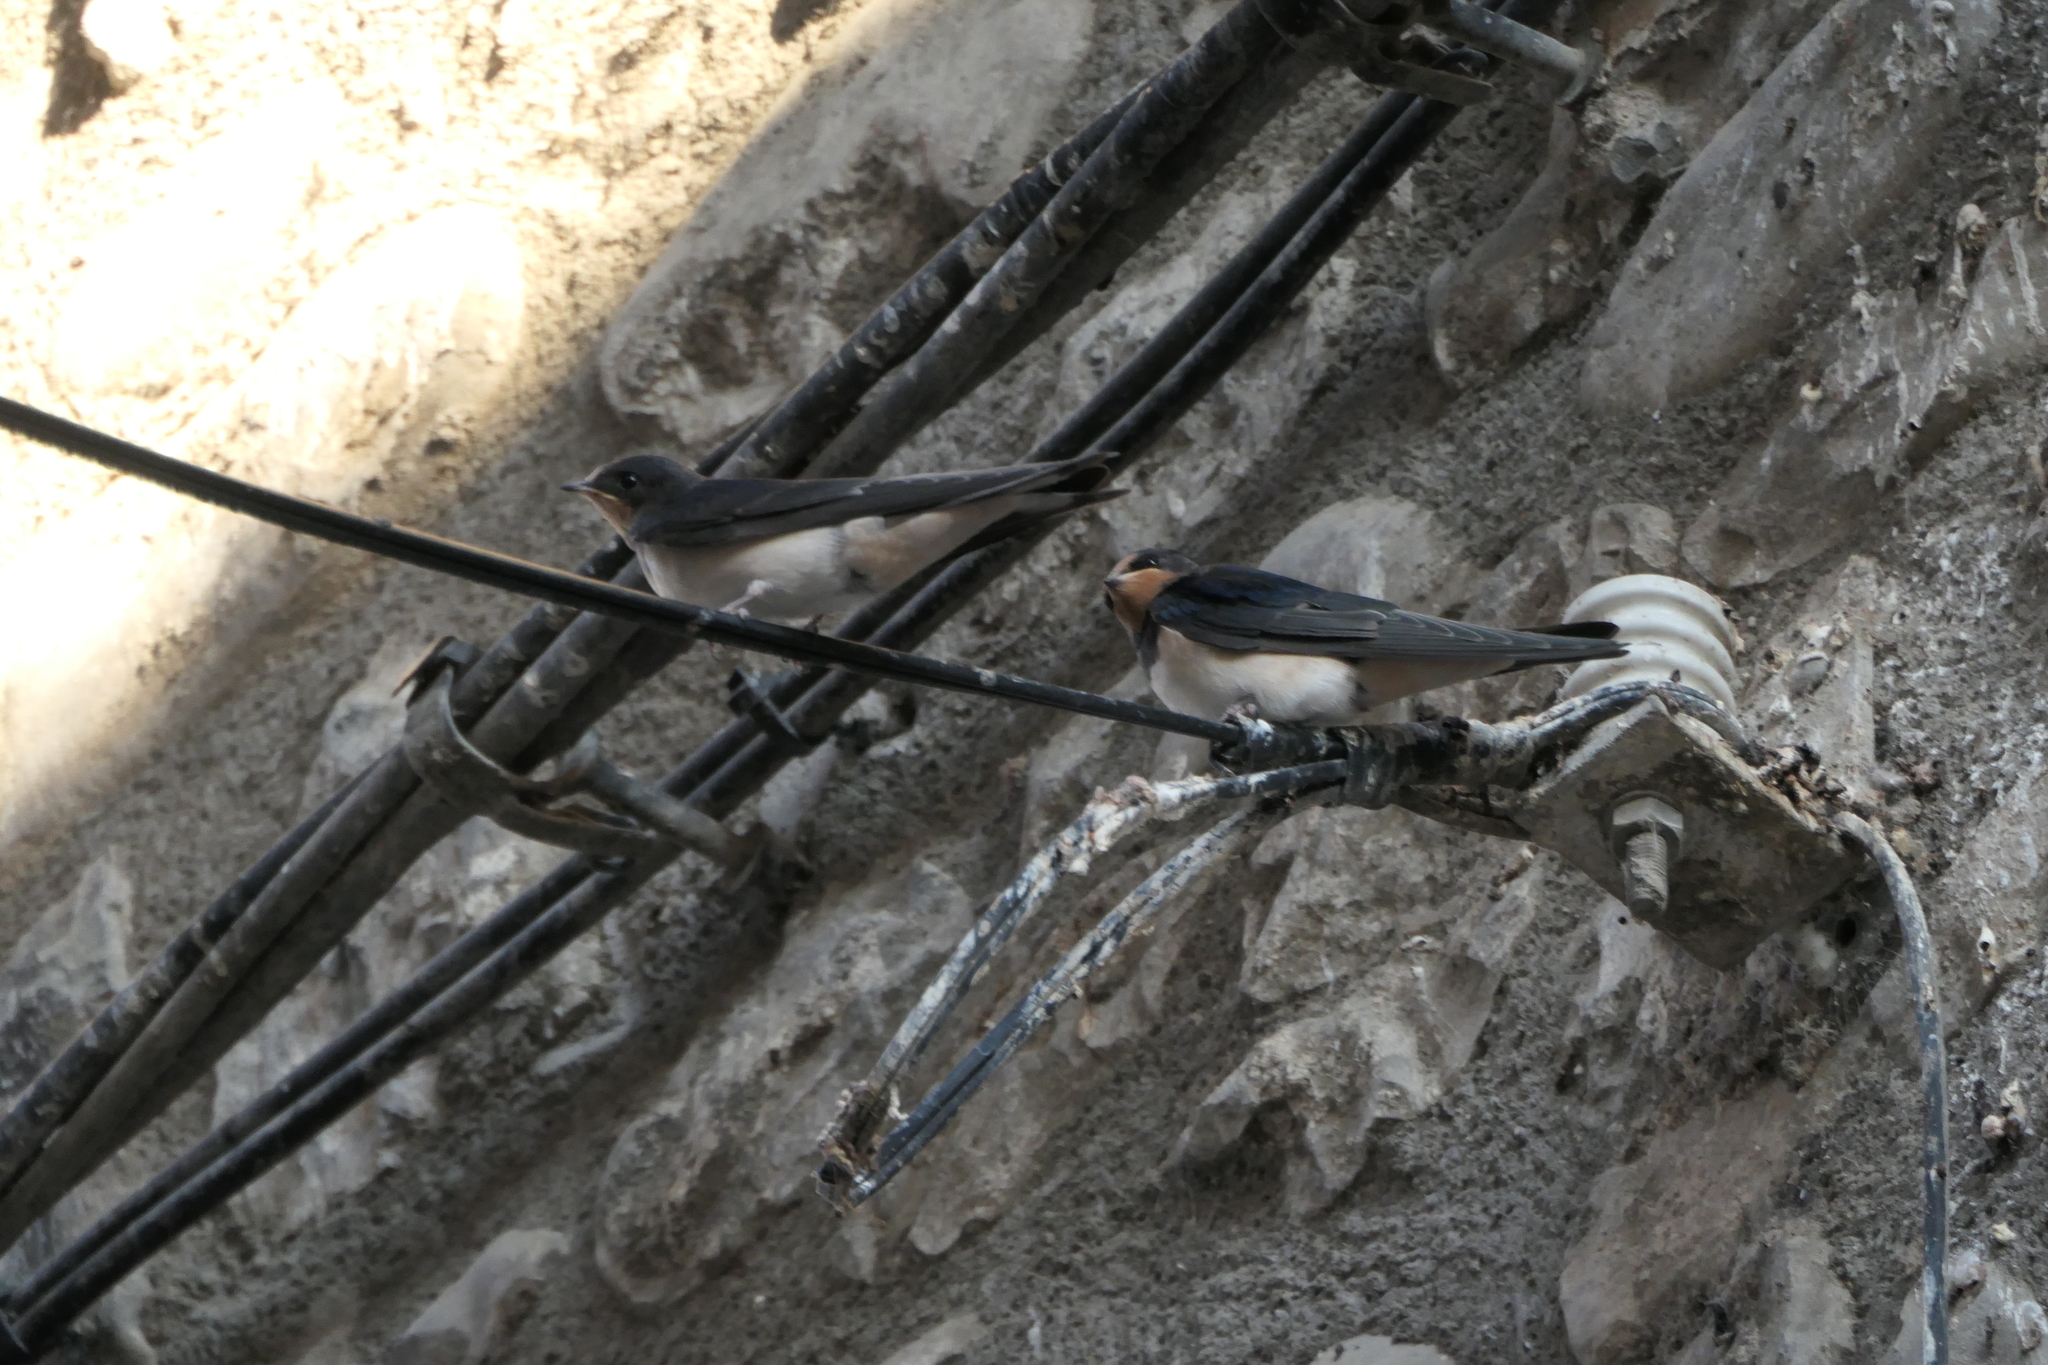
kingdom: Animalia
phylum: Chordata
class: Aves
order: Passeriformes
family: Hirundinidae
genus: Hirundo
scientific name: Hirundo rustica
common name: Barn swallow
